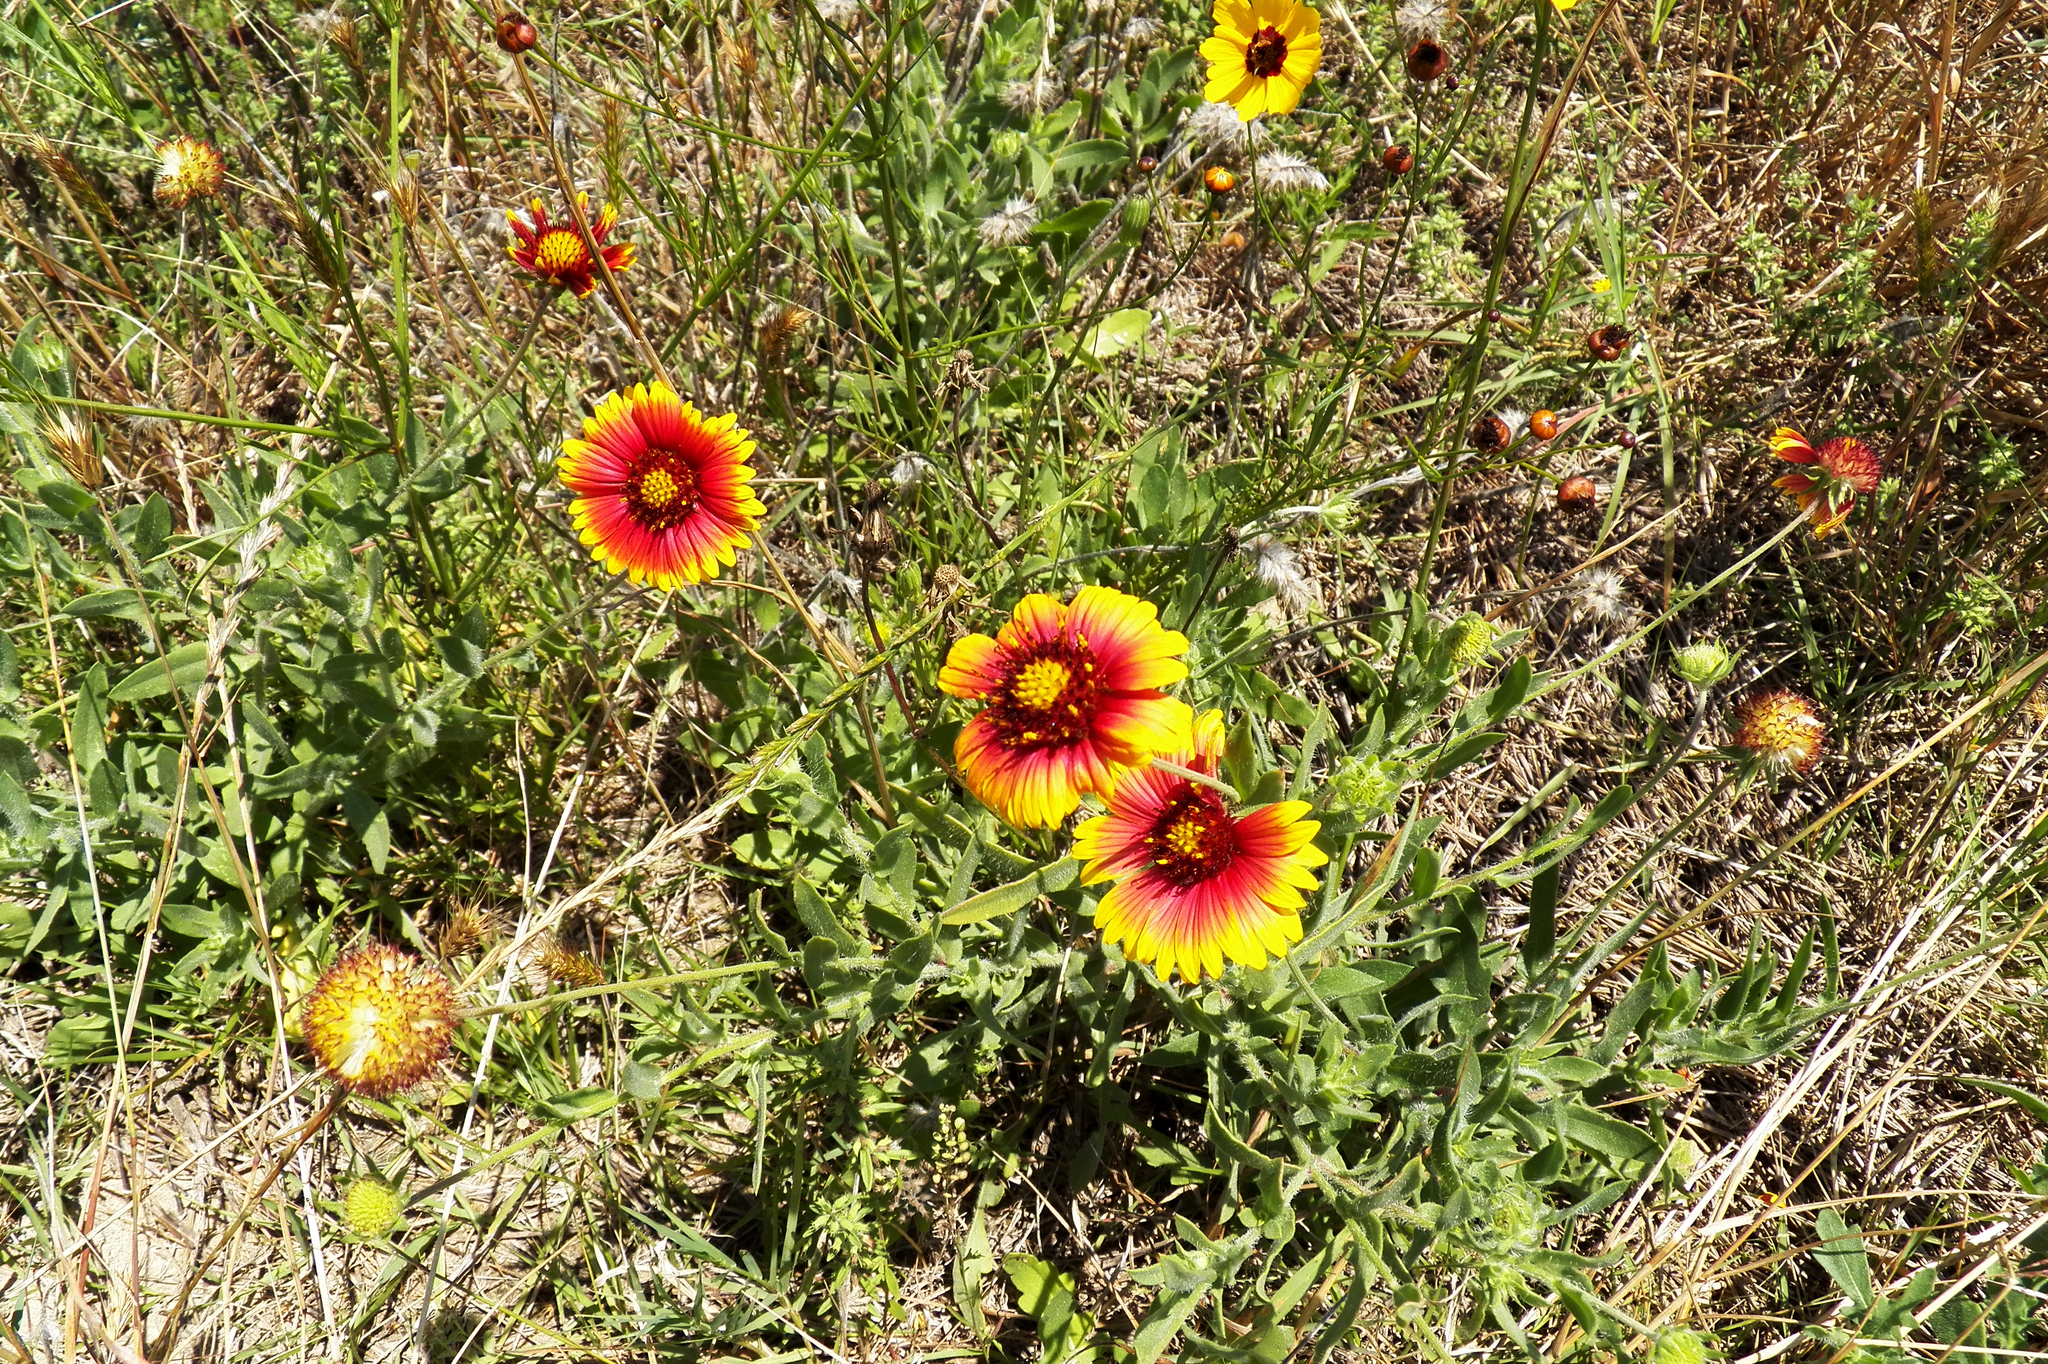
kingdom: Plantae
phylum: Tracheophyta
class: Magnoliopsida
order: Asterales
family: Asteraceae
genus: Gaillardia
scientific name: Gaillardia pulchella
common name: Firewheel
